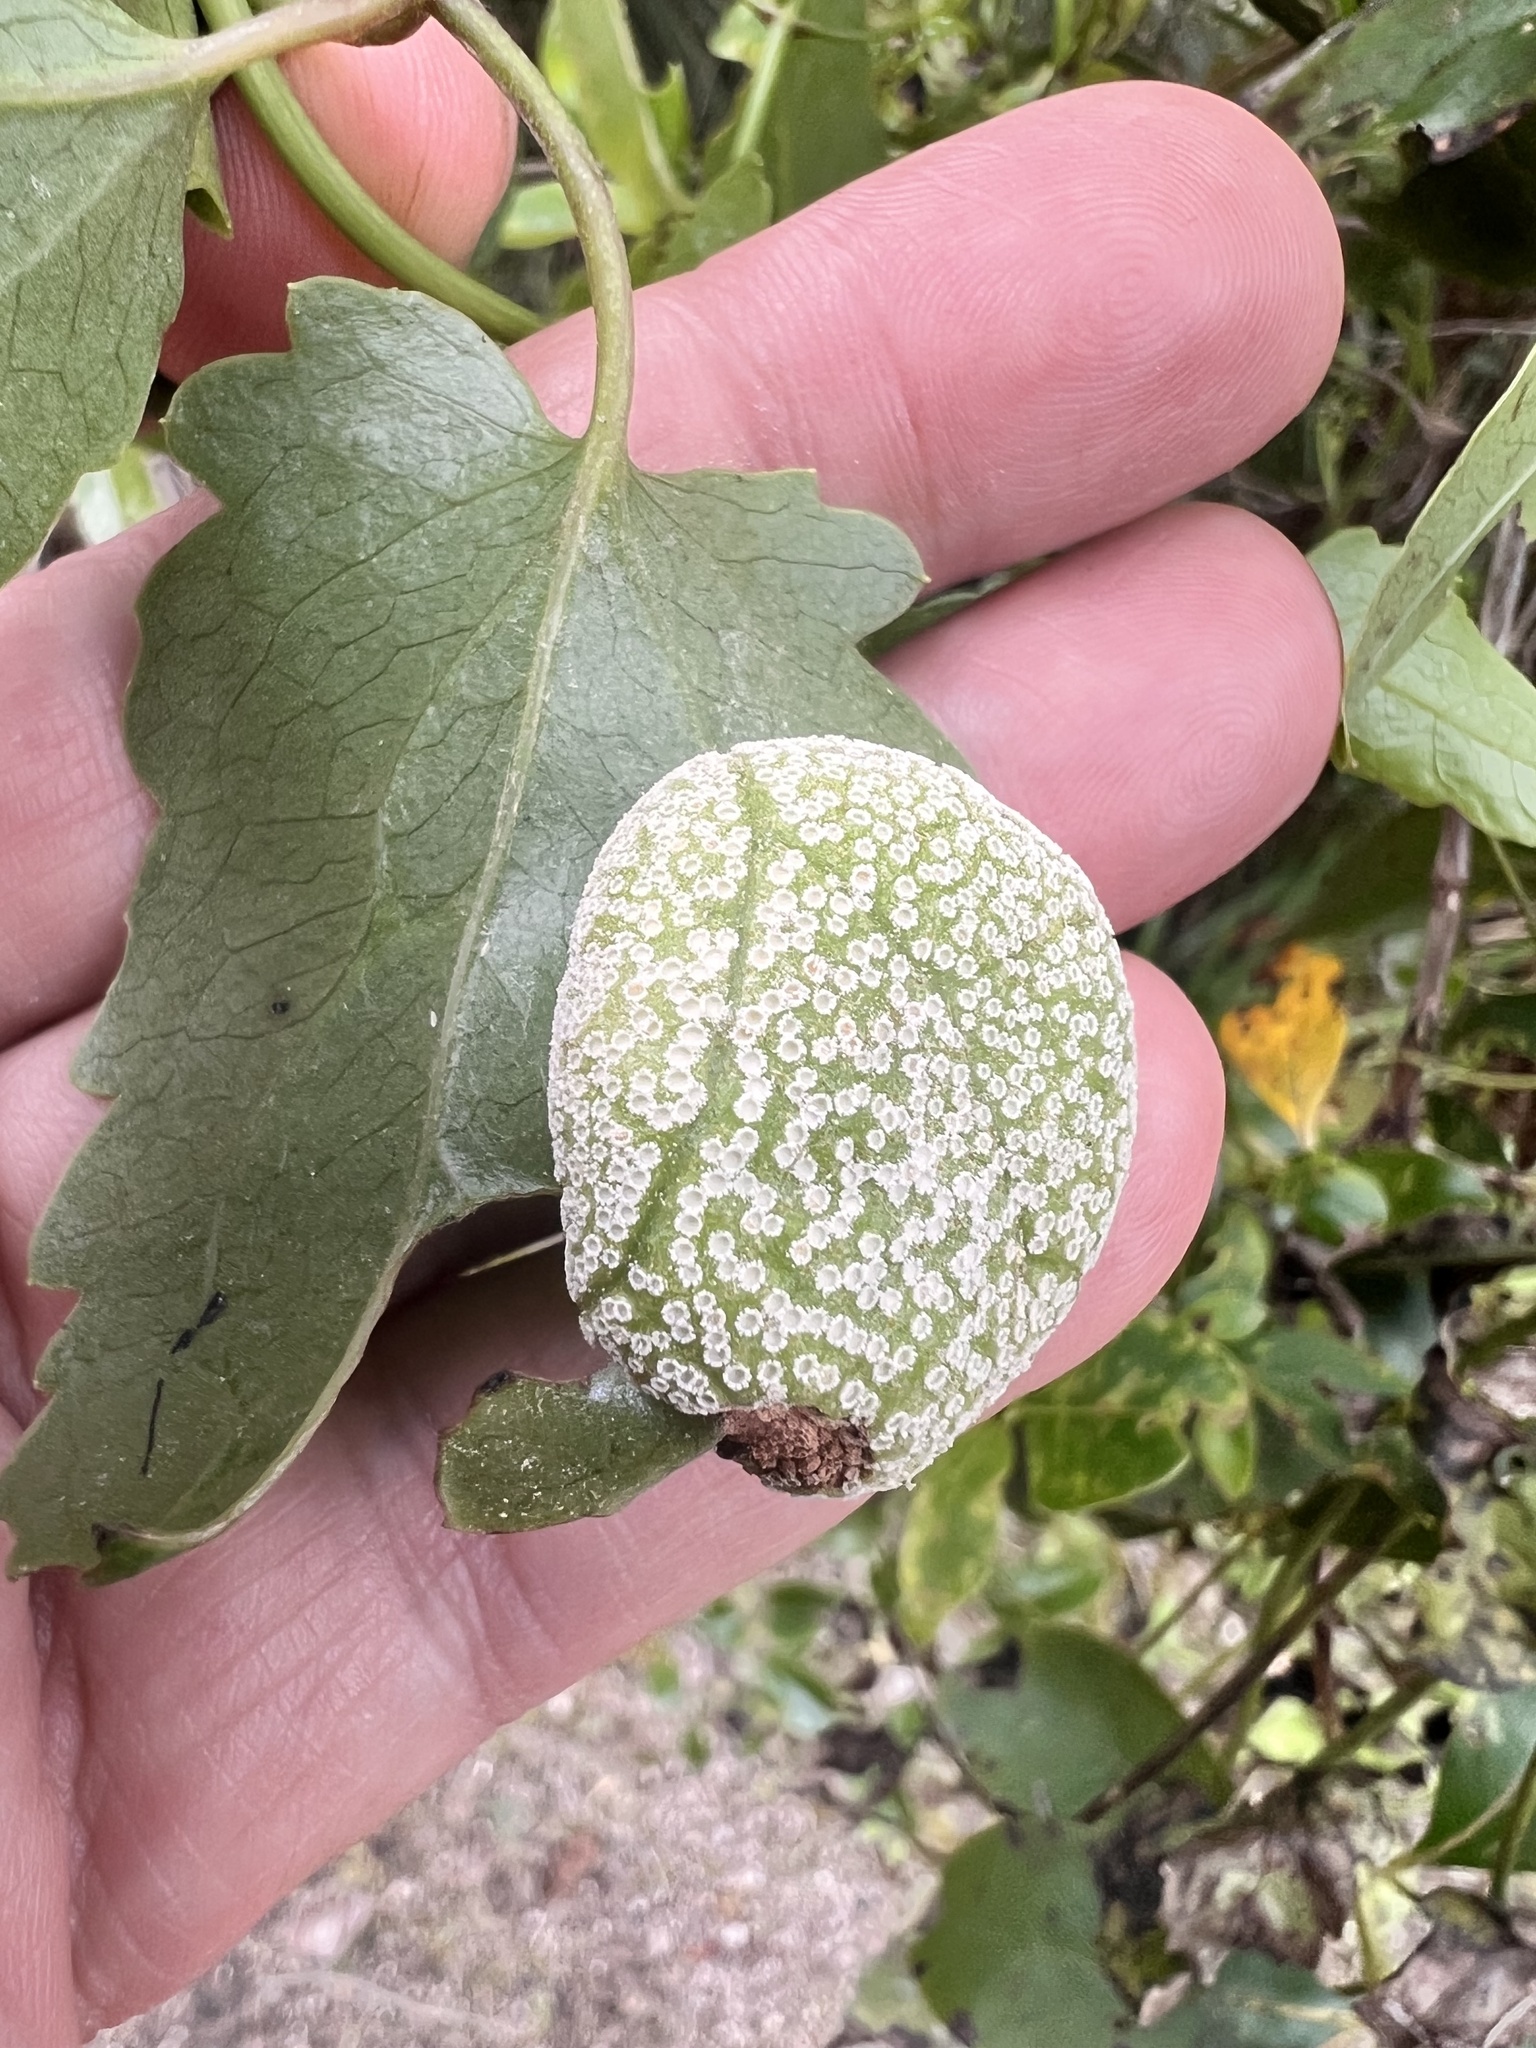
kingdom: Fungi
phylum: Basidiomycota
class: Pucciniomycetes
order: Pucciniales
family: Pucciniaceae
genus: Puccinia
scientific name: Puccinia otagensis
